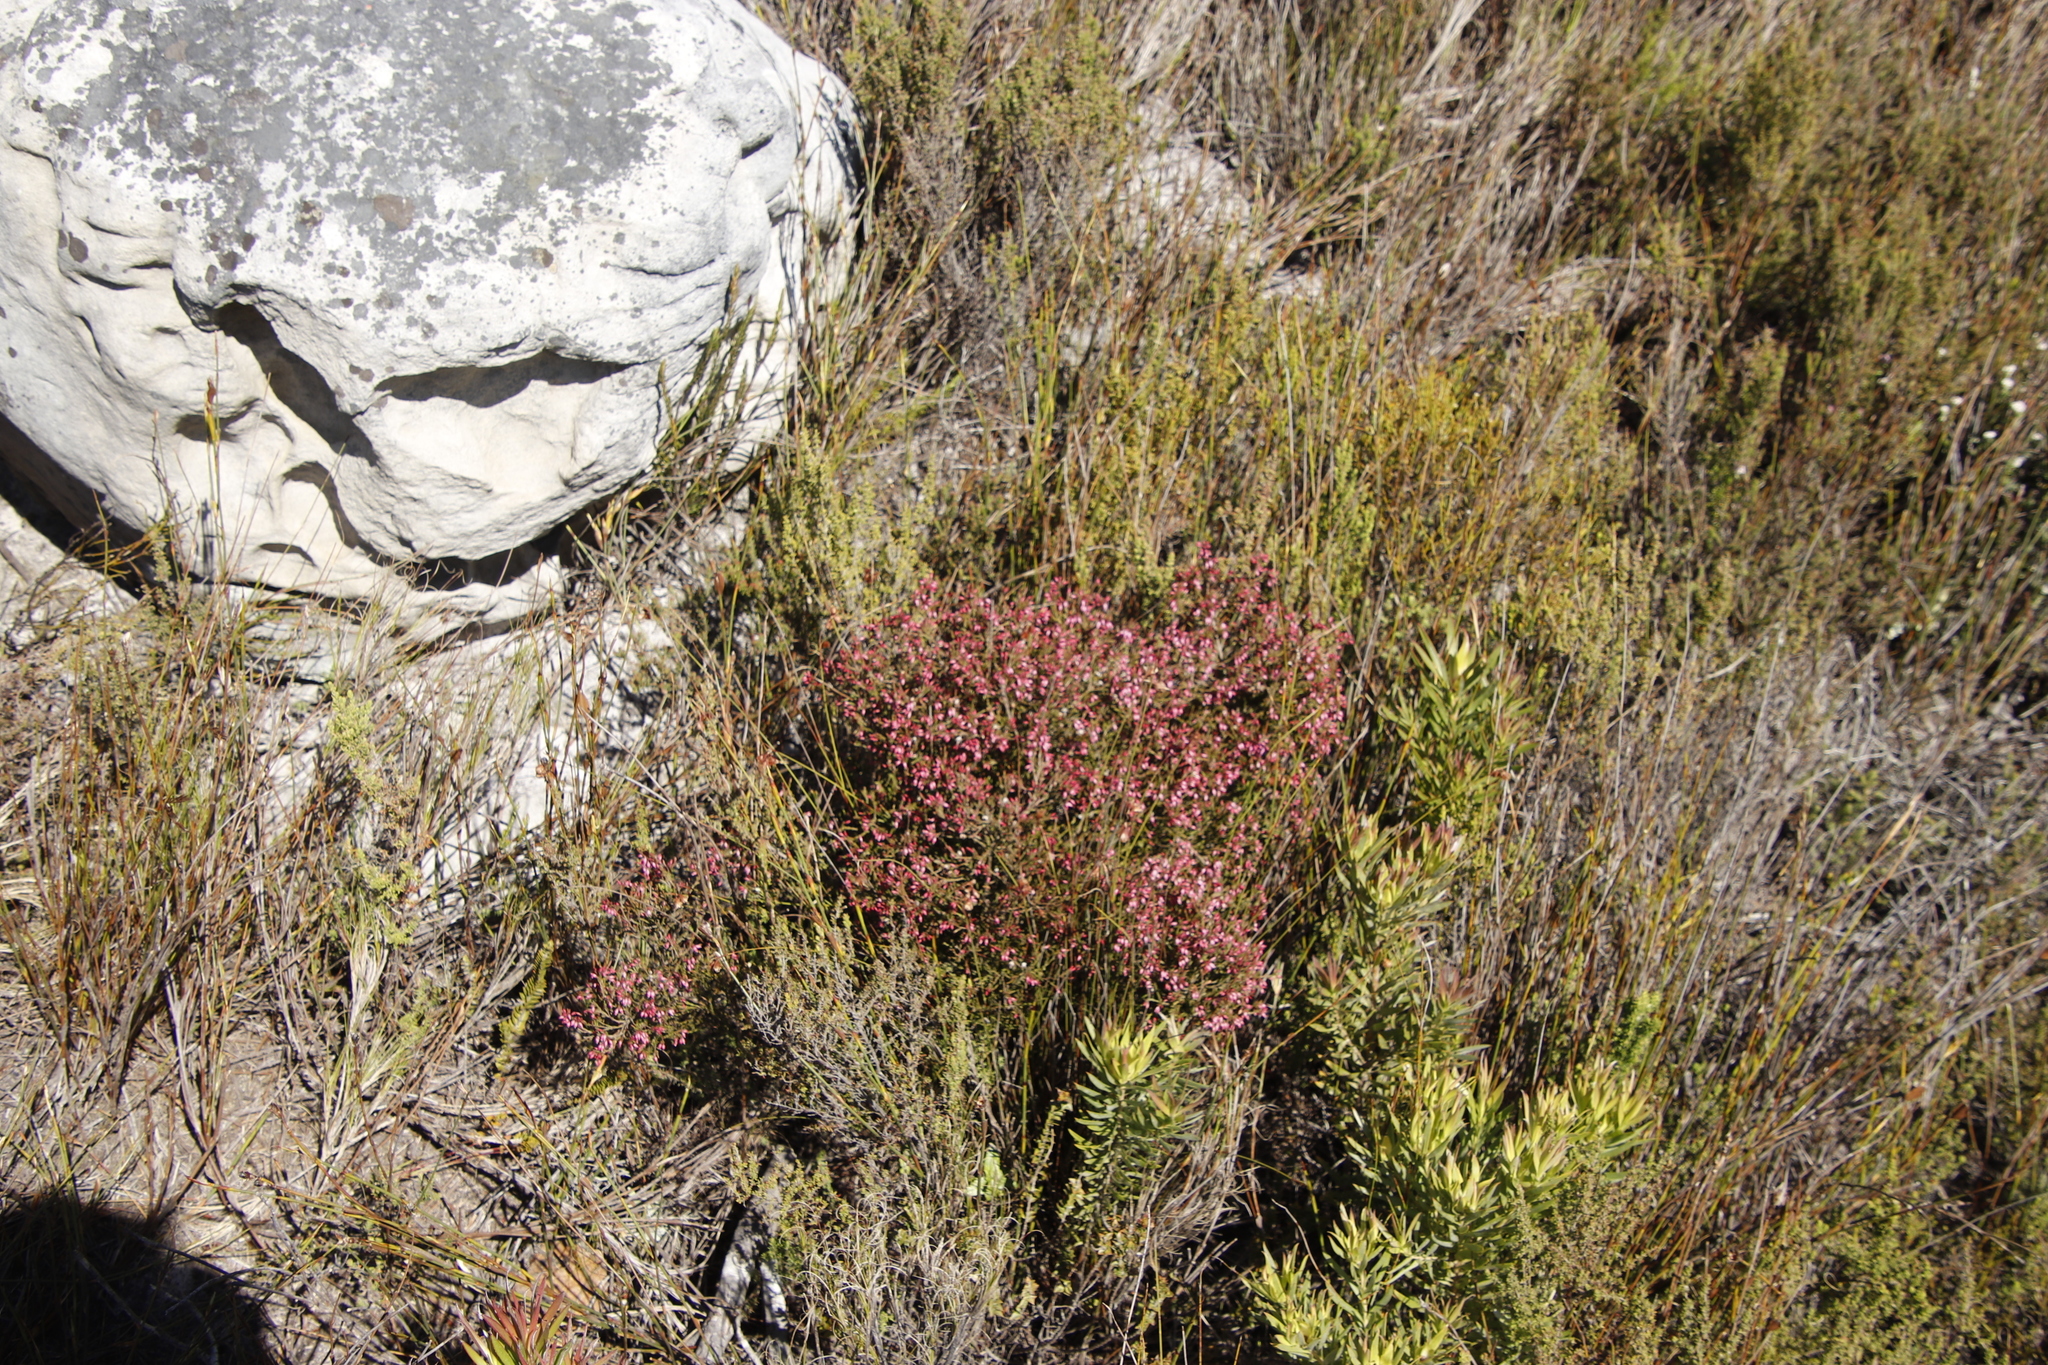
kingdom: Plantae
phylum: Tracheophyta
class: Magnoliopsida
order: Ericales
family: Ericaceae
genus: Erica
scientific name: Erica equisetifolia
